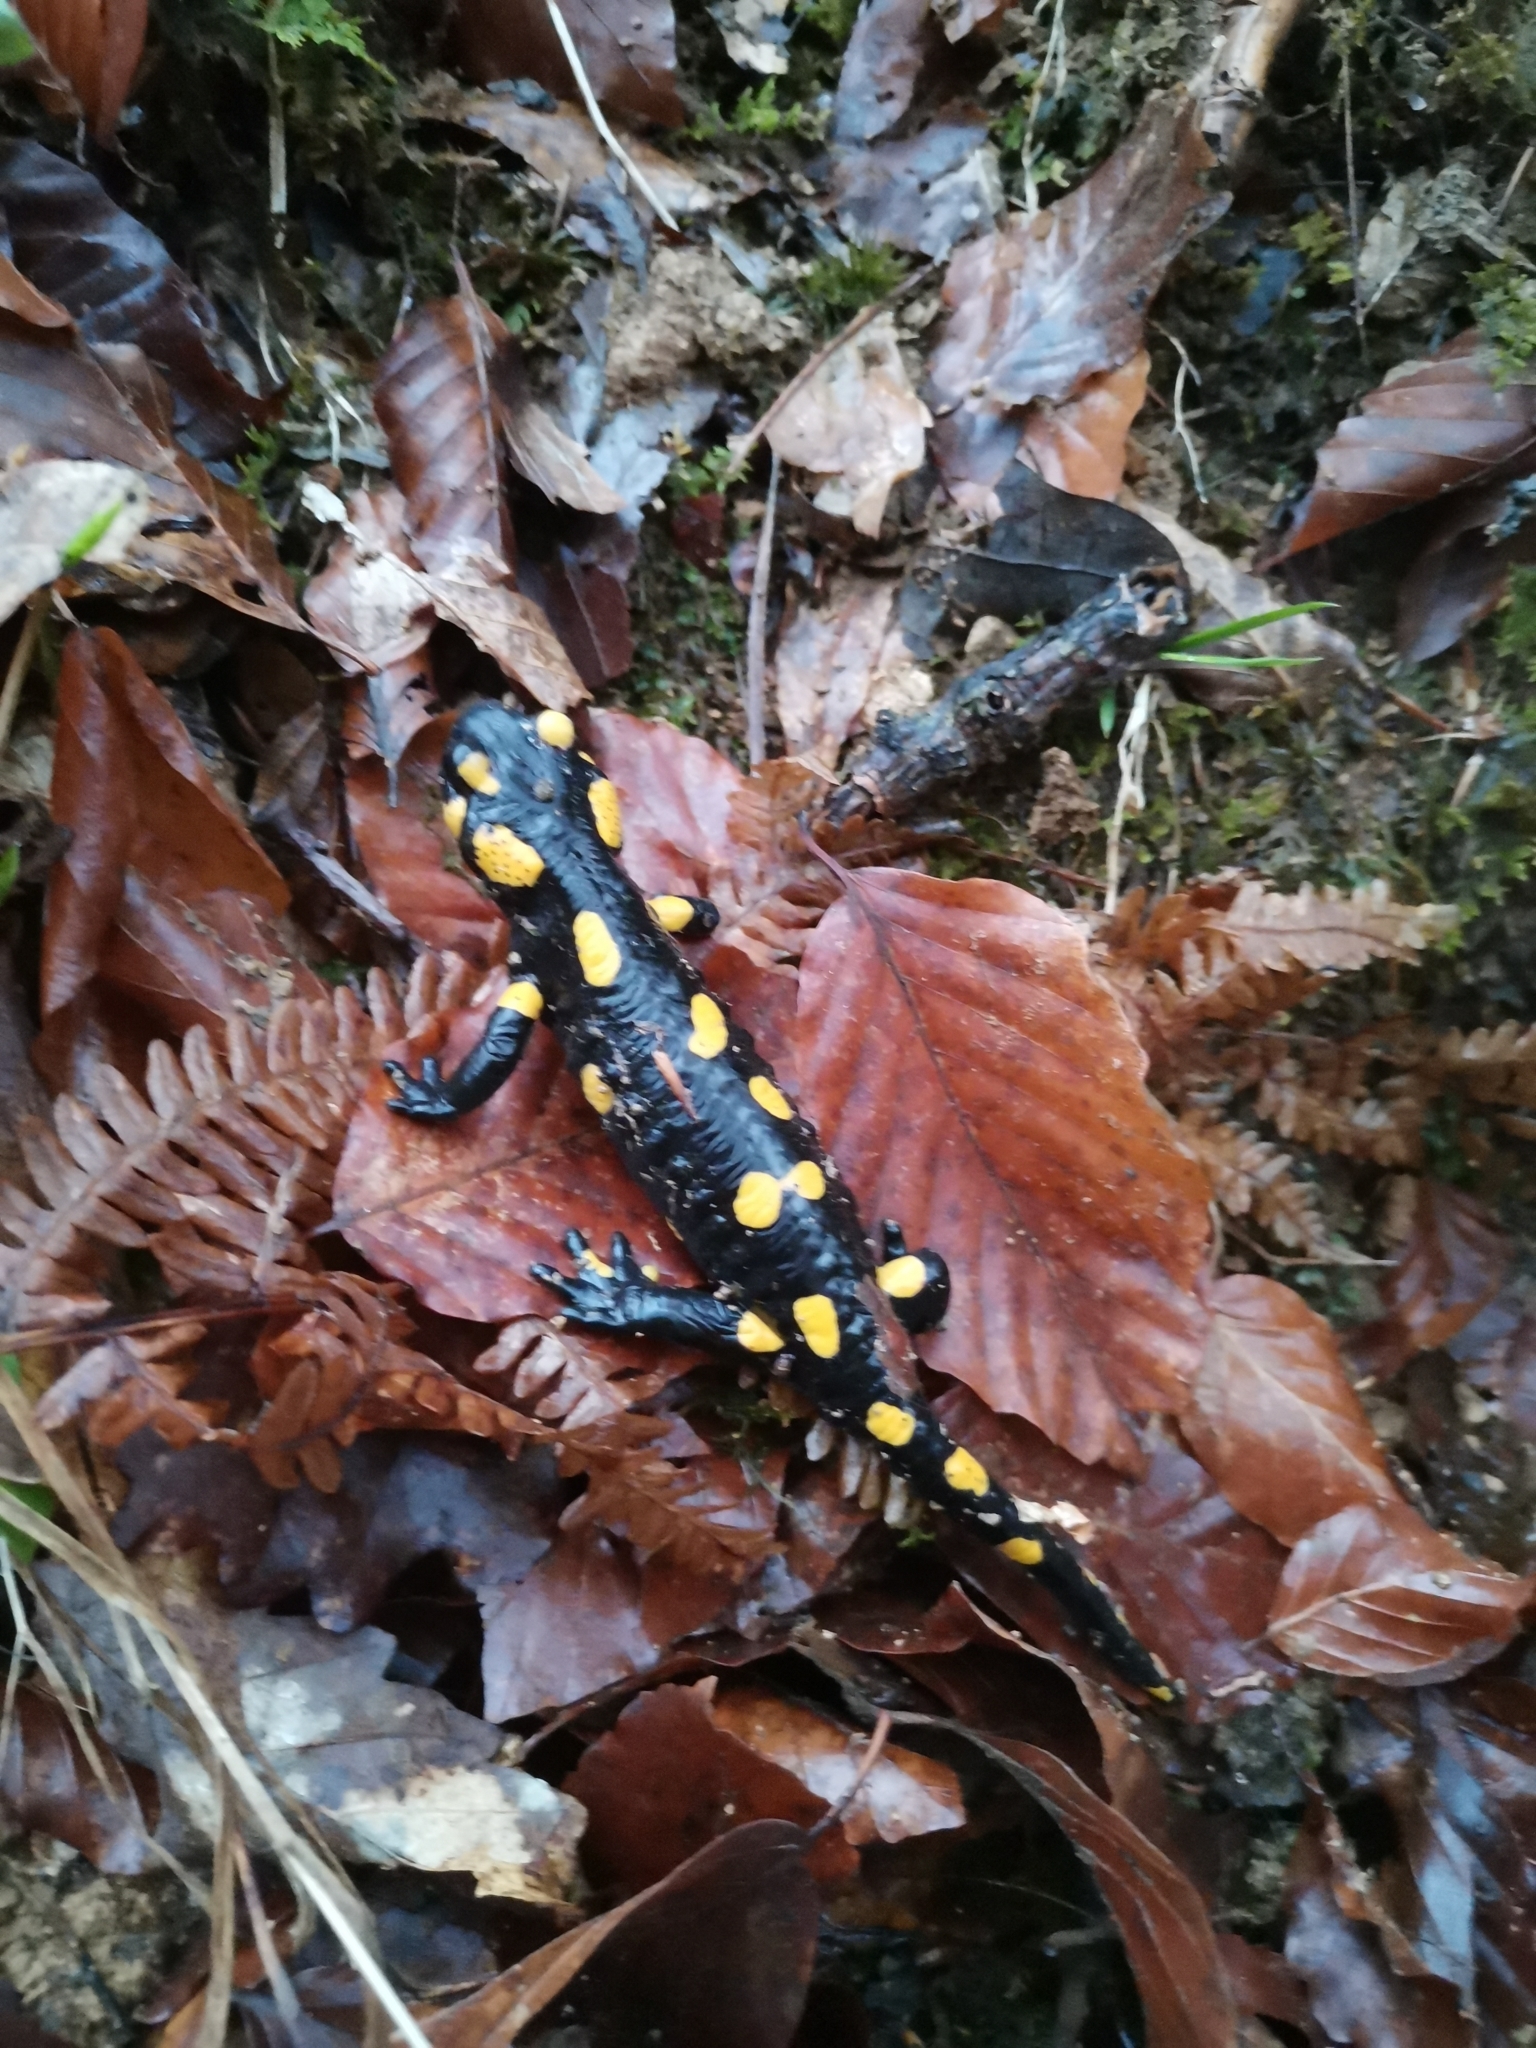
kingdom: Animalia
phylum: Chordata
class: Amphibia
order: Caudata
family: Salamandridae
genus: Salamandra
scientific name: Salamandra salamandra
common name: Fire salamander
